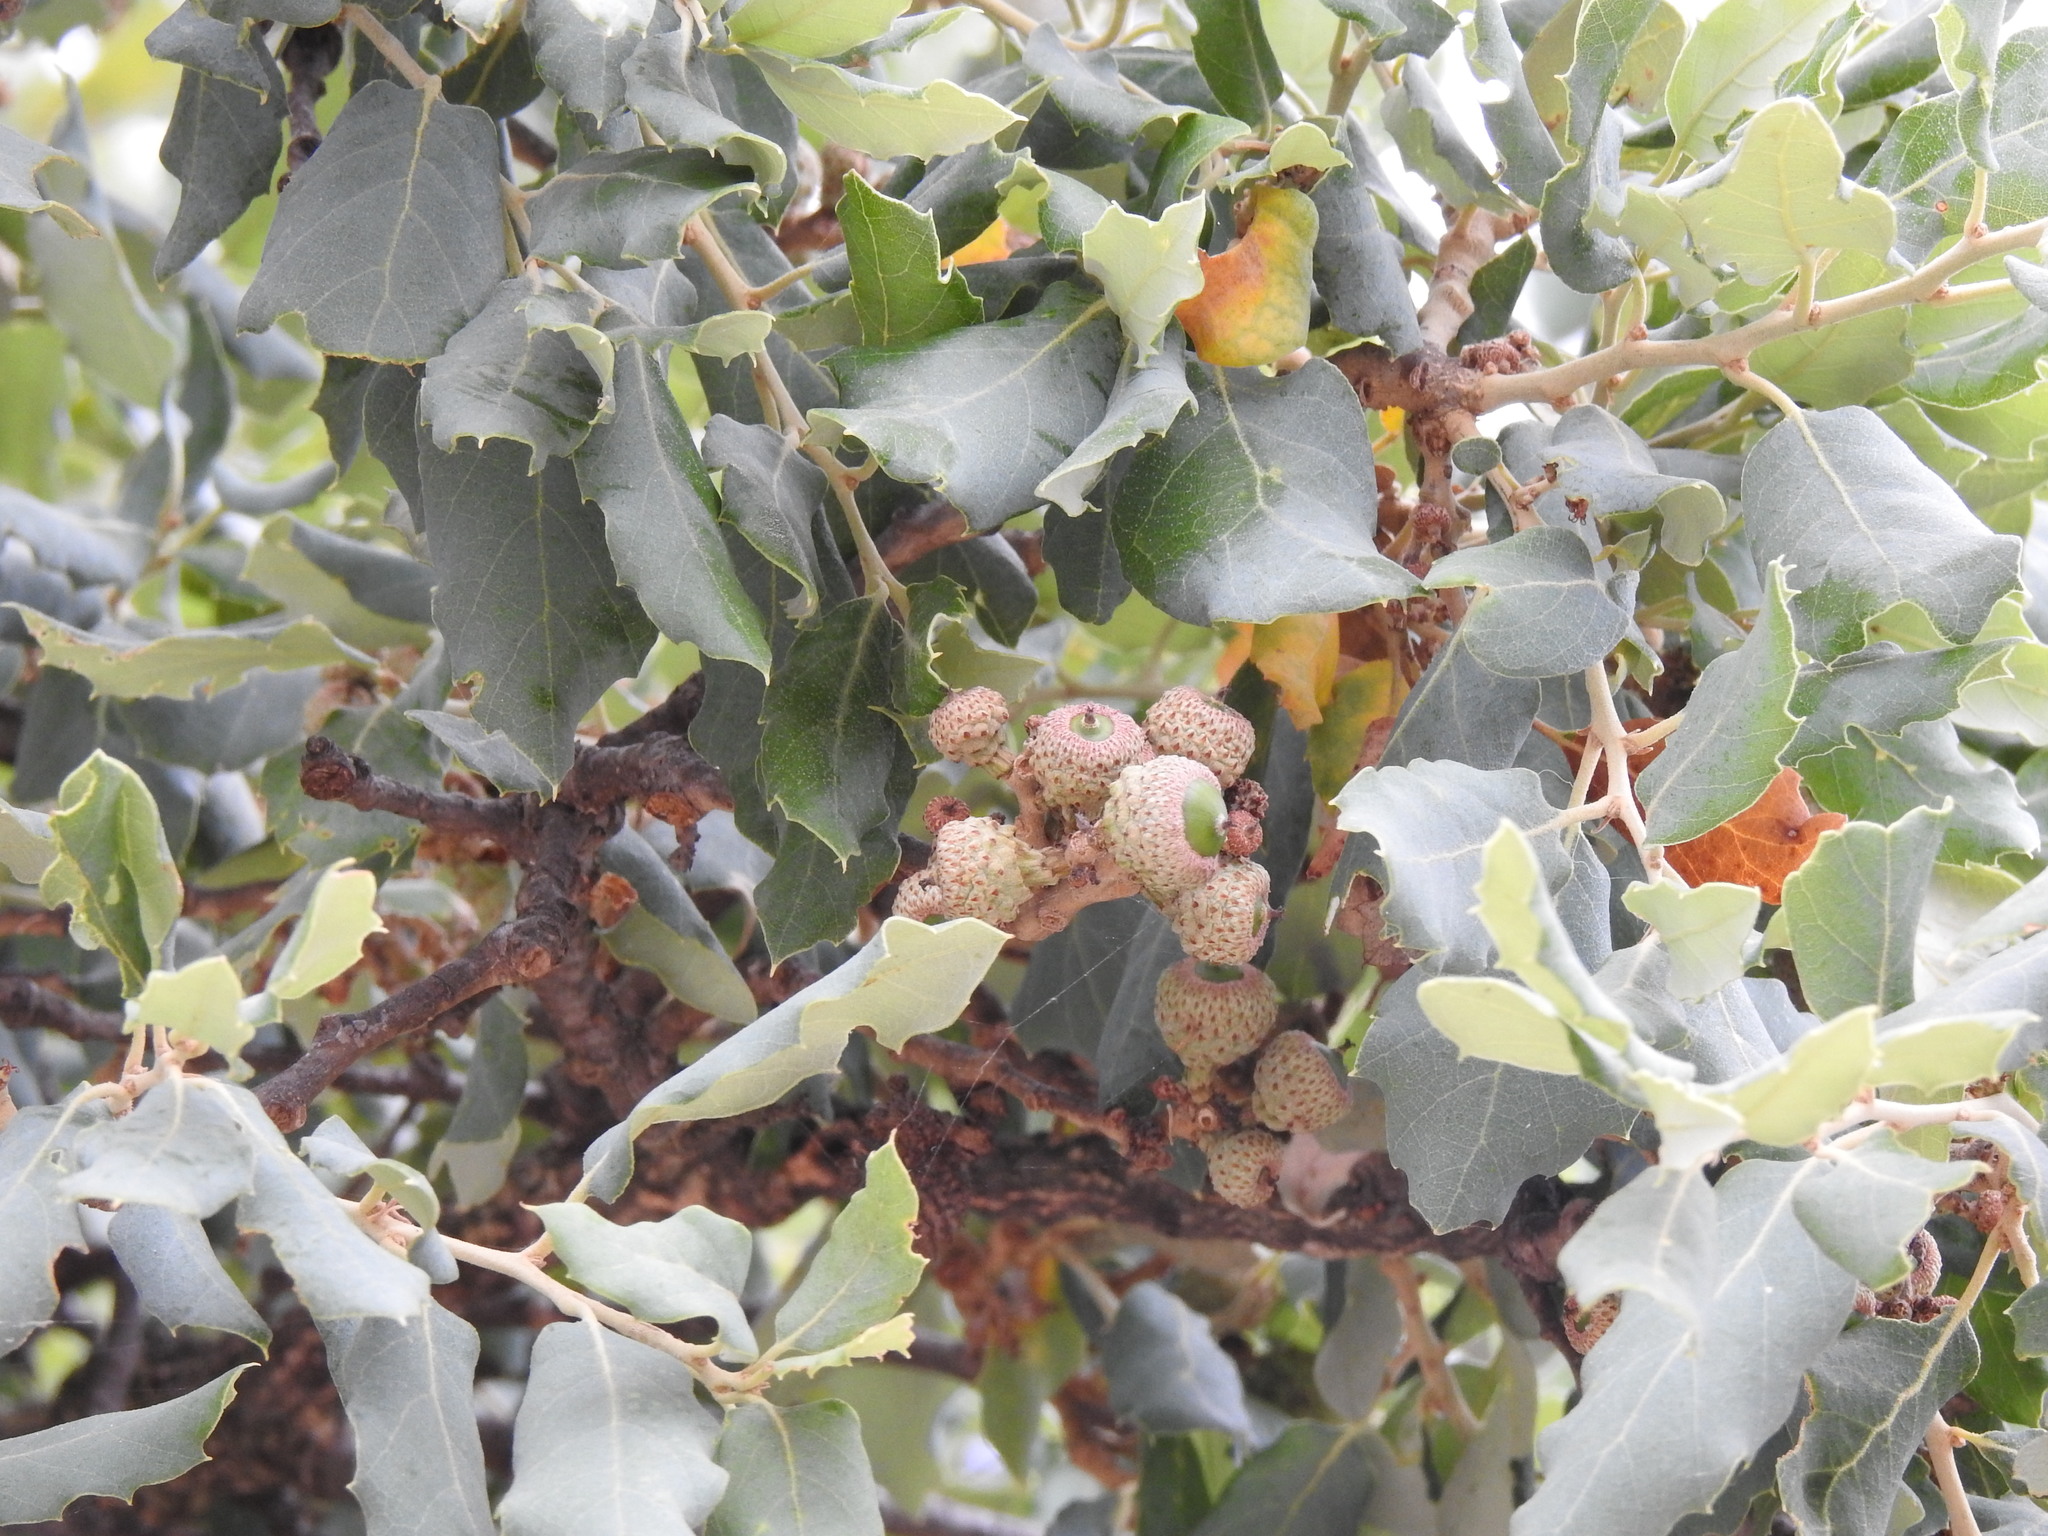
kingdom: Plantae
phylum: Tracheophyta
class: Magnoliopsida
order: Fagales
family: Fagaceae
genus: Quercus
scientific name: Quercus suber
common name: Cork oak
